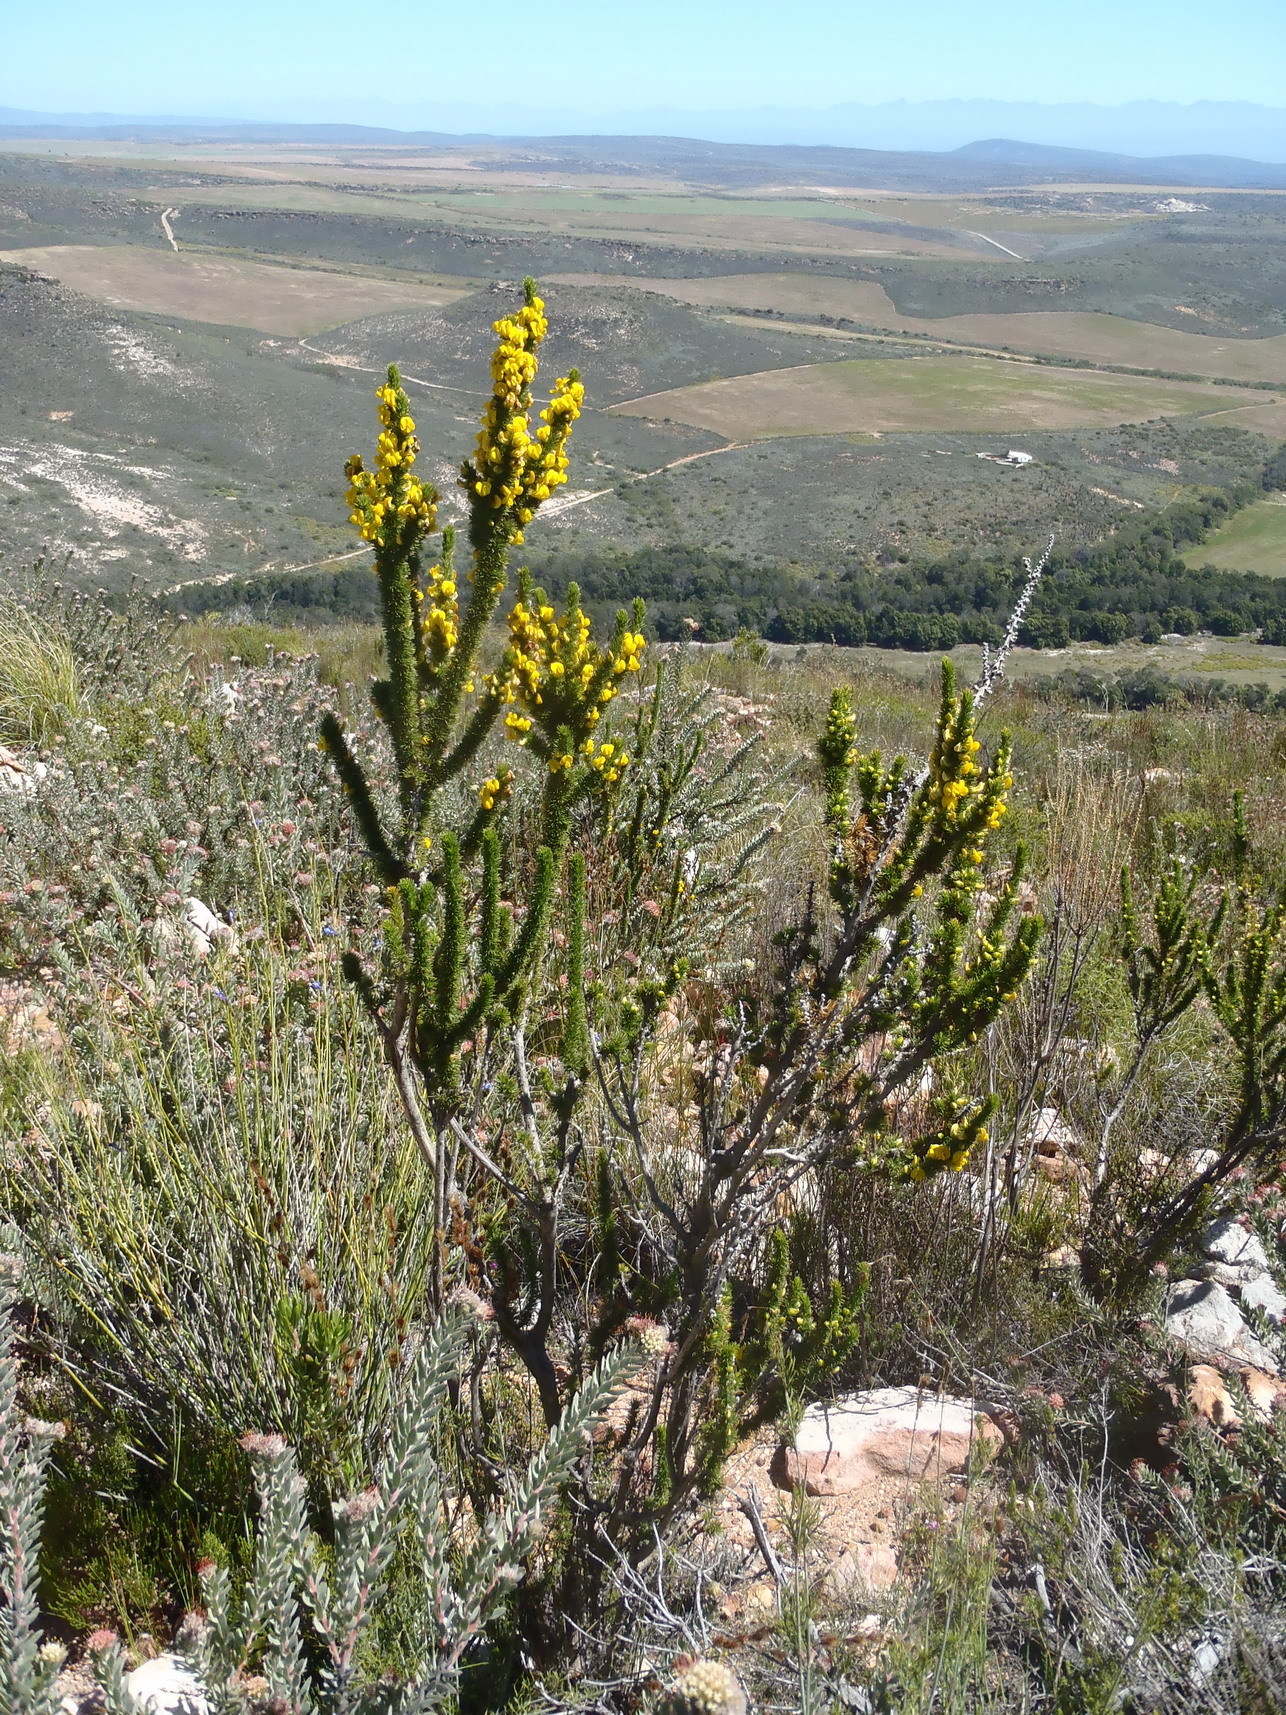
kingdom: Plantae
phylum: Tracheophyta
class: Magnoliopsida
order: Fabales
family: Fabaceae
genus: Aspalathus
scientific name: Aspalathus sceptrumaureum
